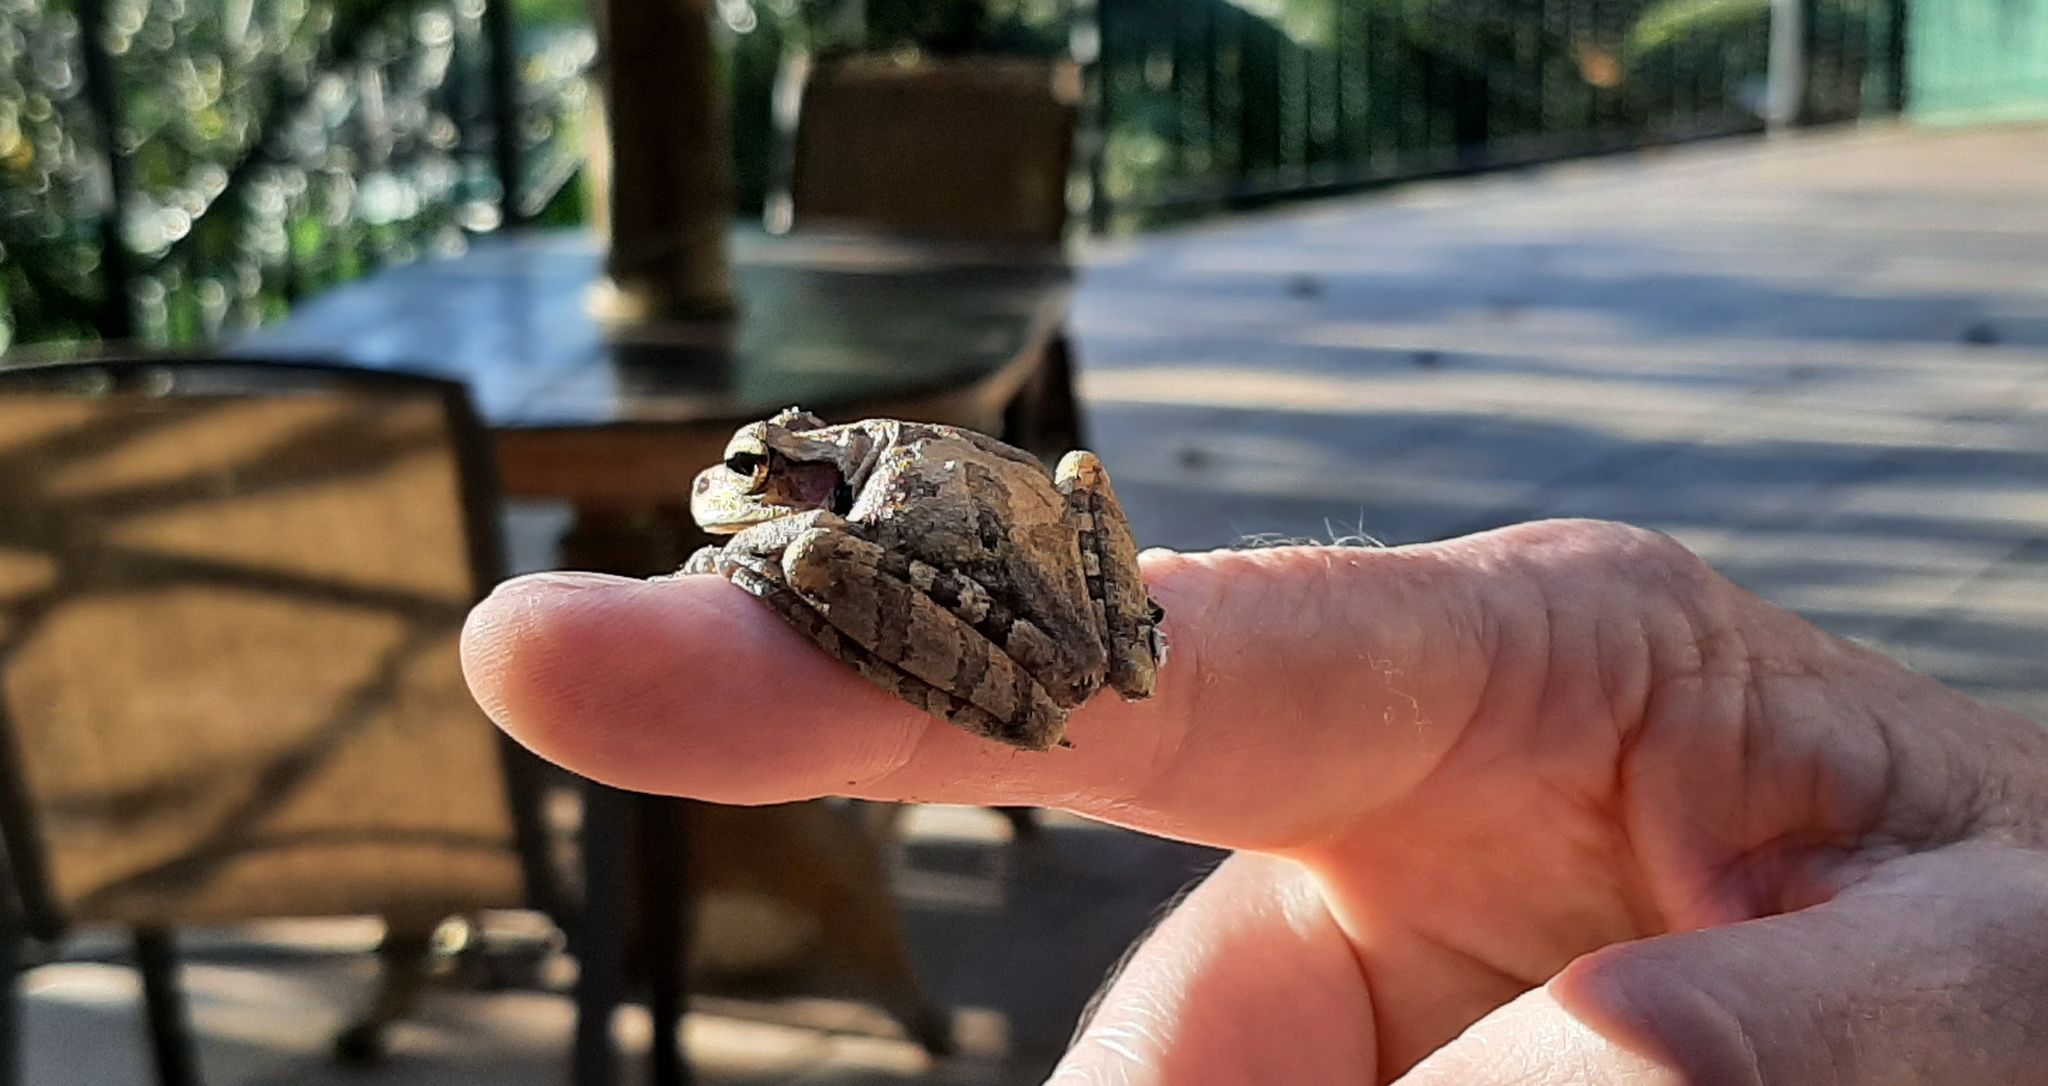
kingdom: Animalia
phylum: Chordata
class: Amphibia
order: Anura
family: Hylidae
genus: Smilisca
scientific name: Smilisca baudinii
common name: Mexican smilisca
